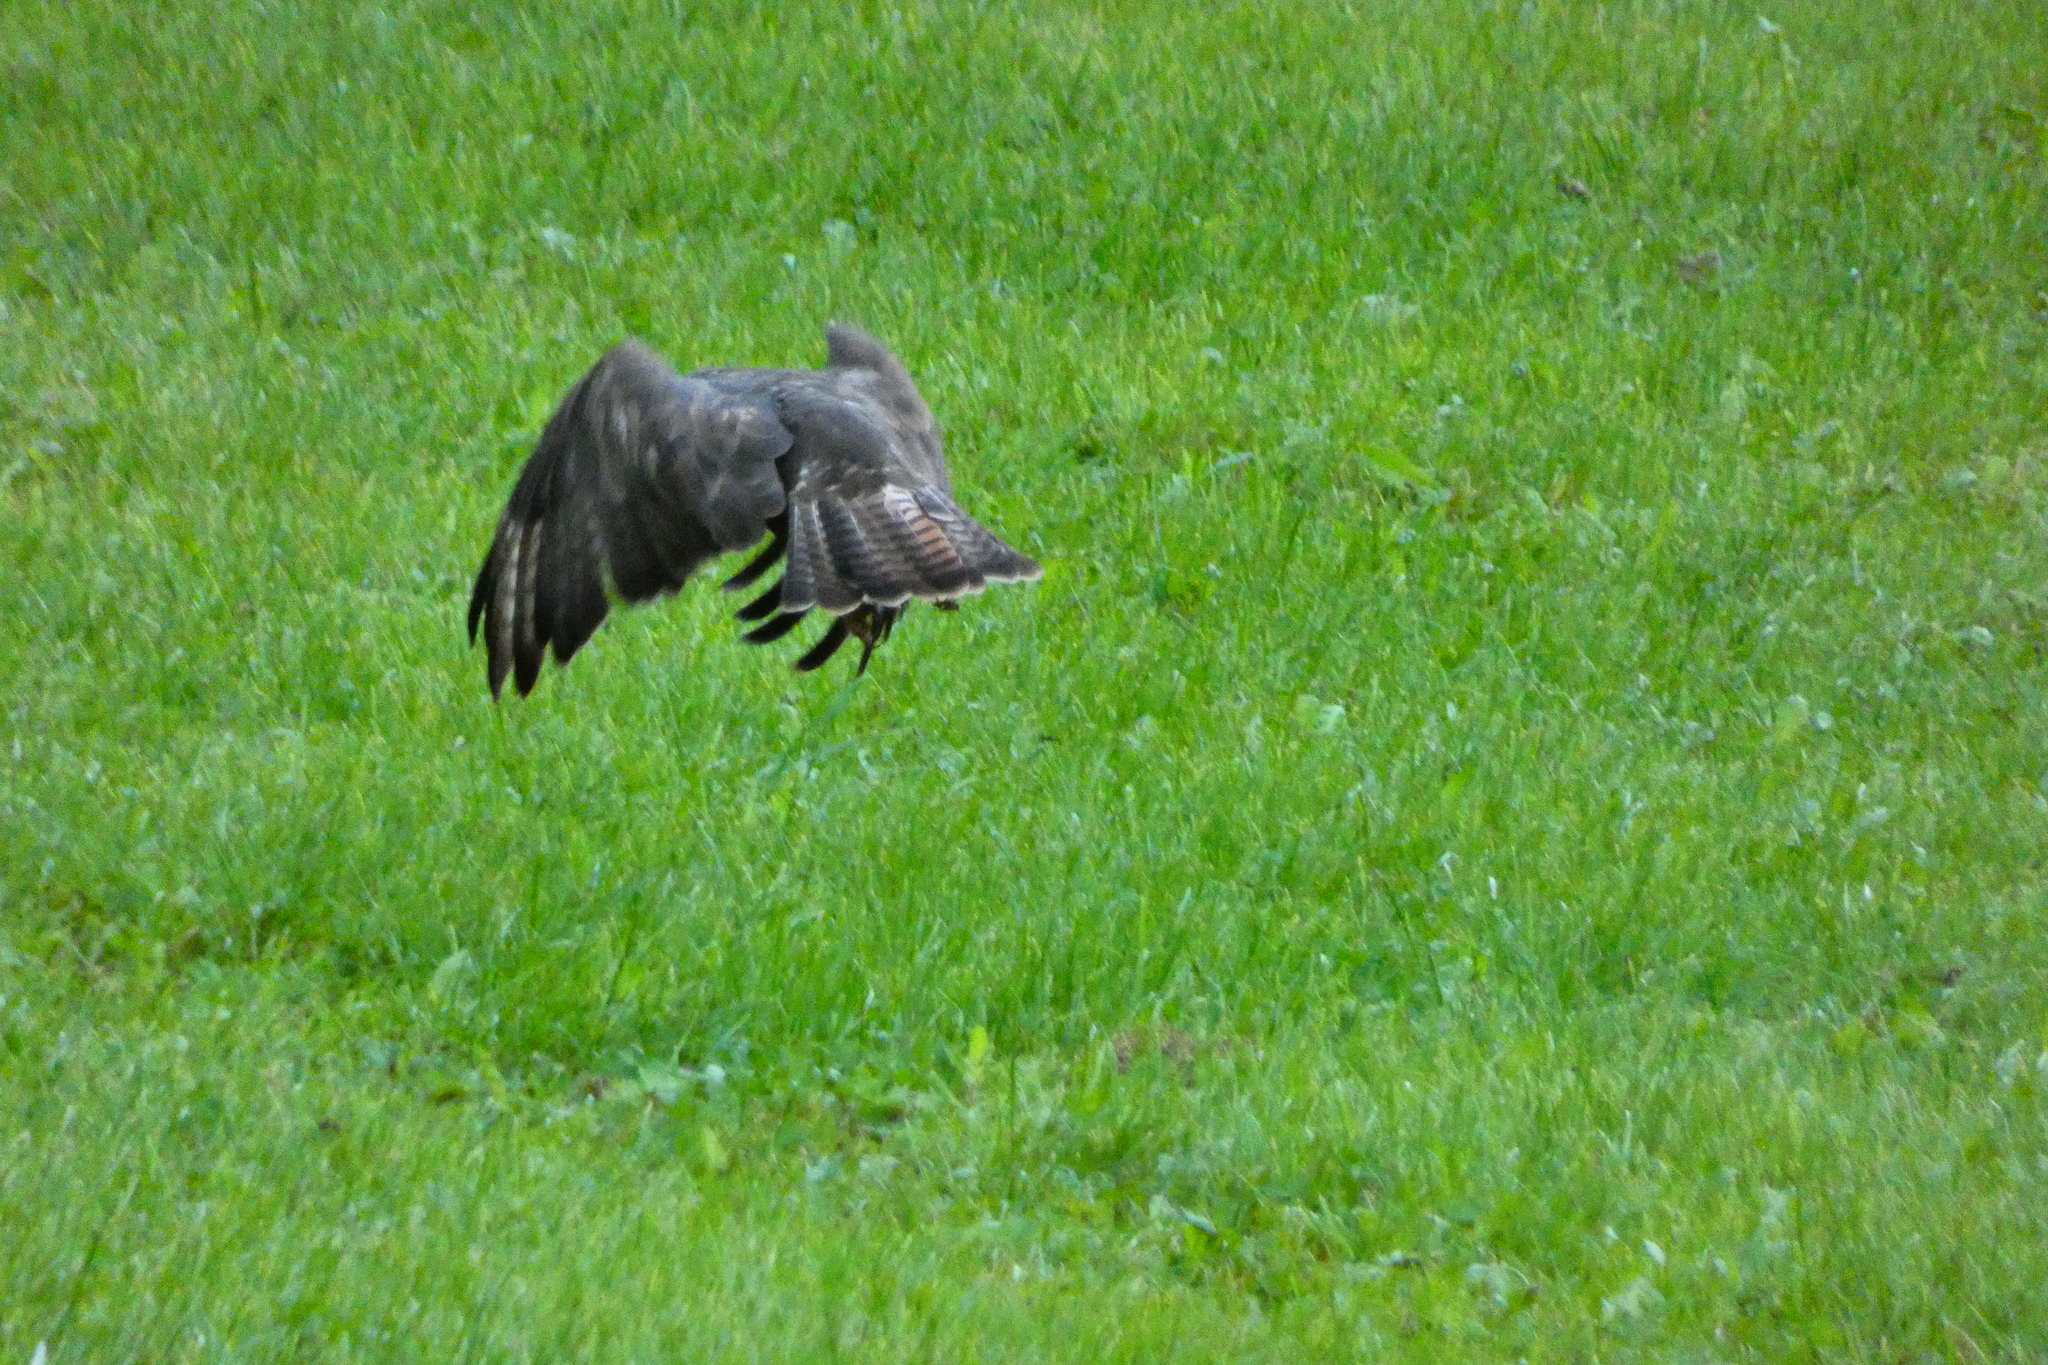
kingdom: Animalia
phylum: Chordata
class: Aves
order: Accipitriformes
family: Accipitridae
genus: Buteo
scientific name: Buteo buteo
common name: Common buzzard
